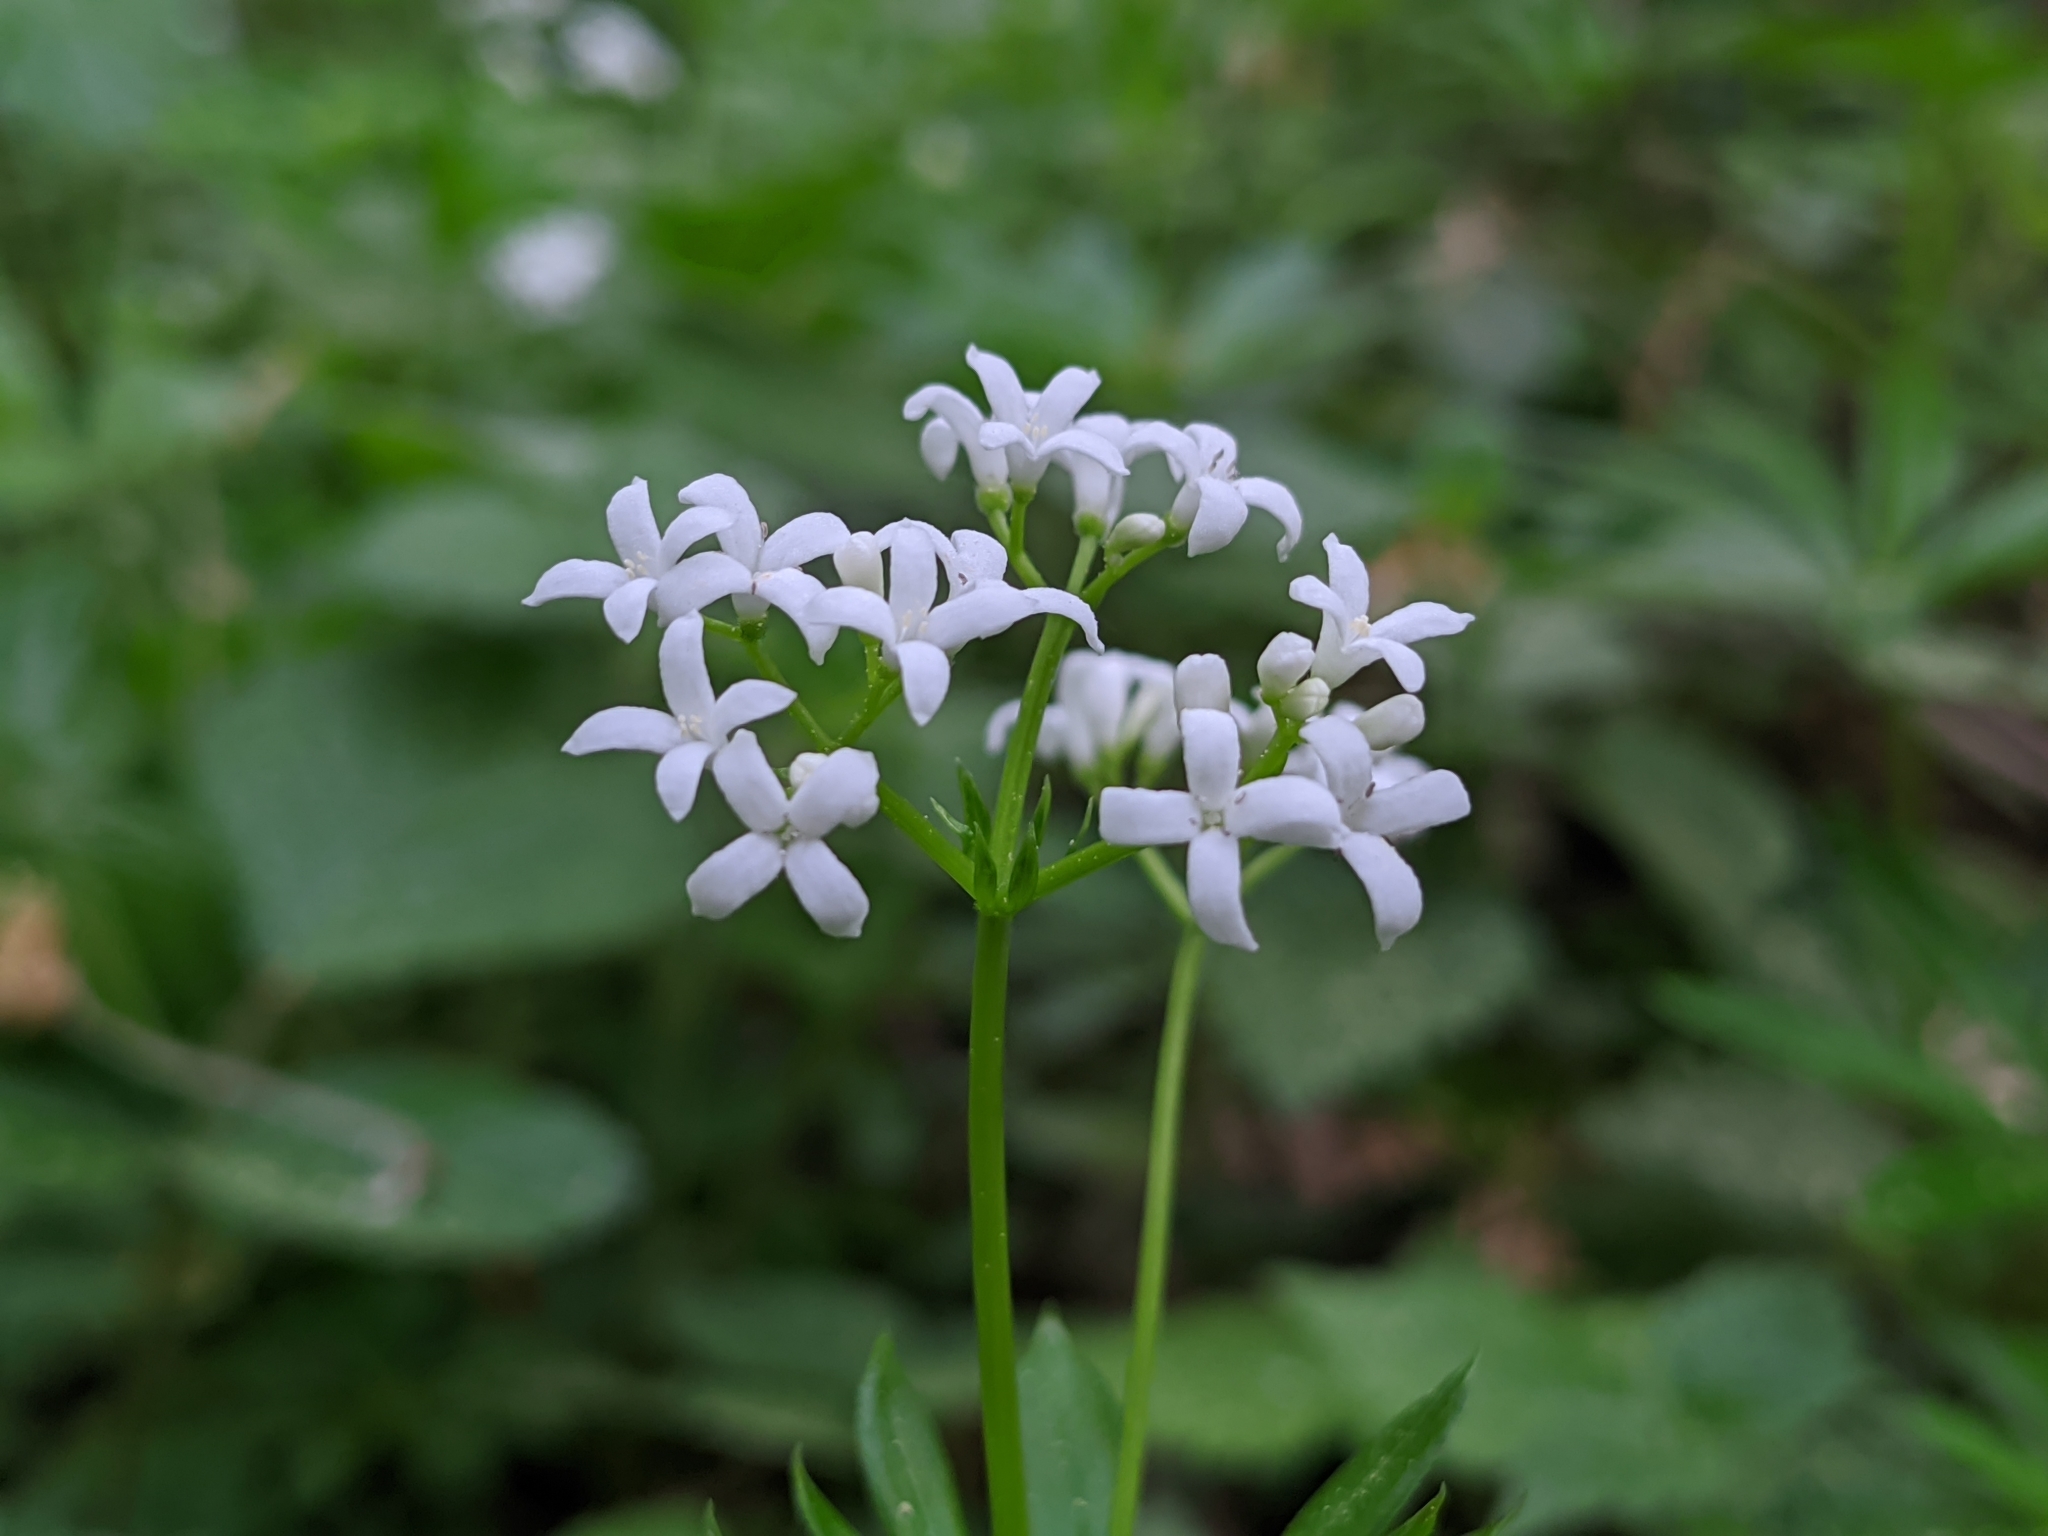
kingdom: Plantae
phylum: Tracheophyta
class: Magnoliopsida
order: Gentianales
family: Rubiaceae
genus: Galium
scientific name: Galium odoratum
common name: Sweet woodruff
